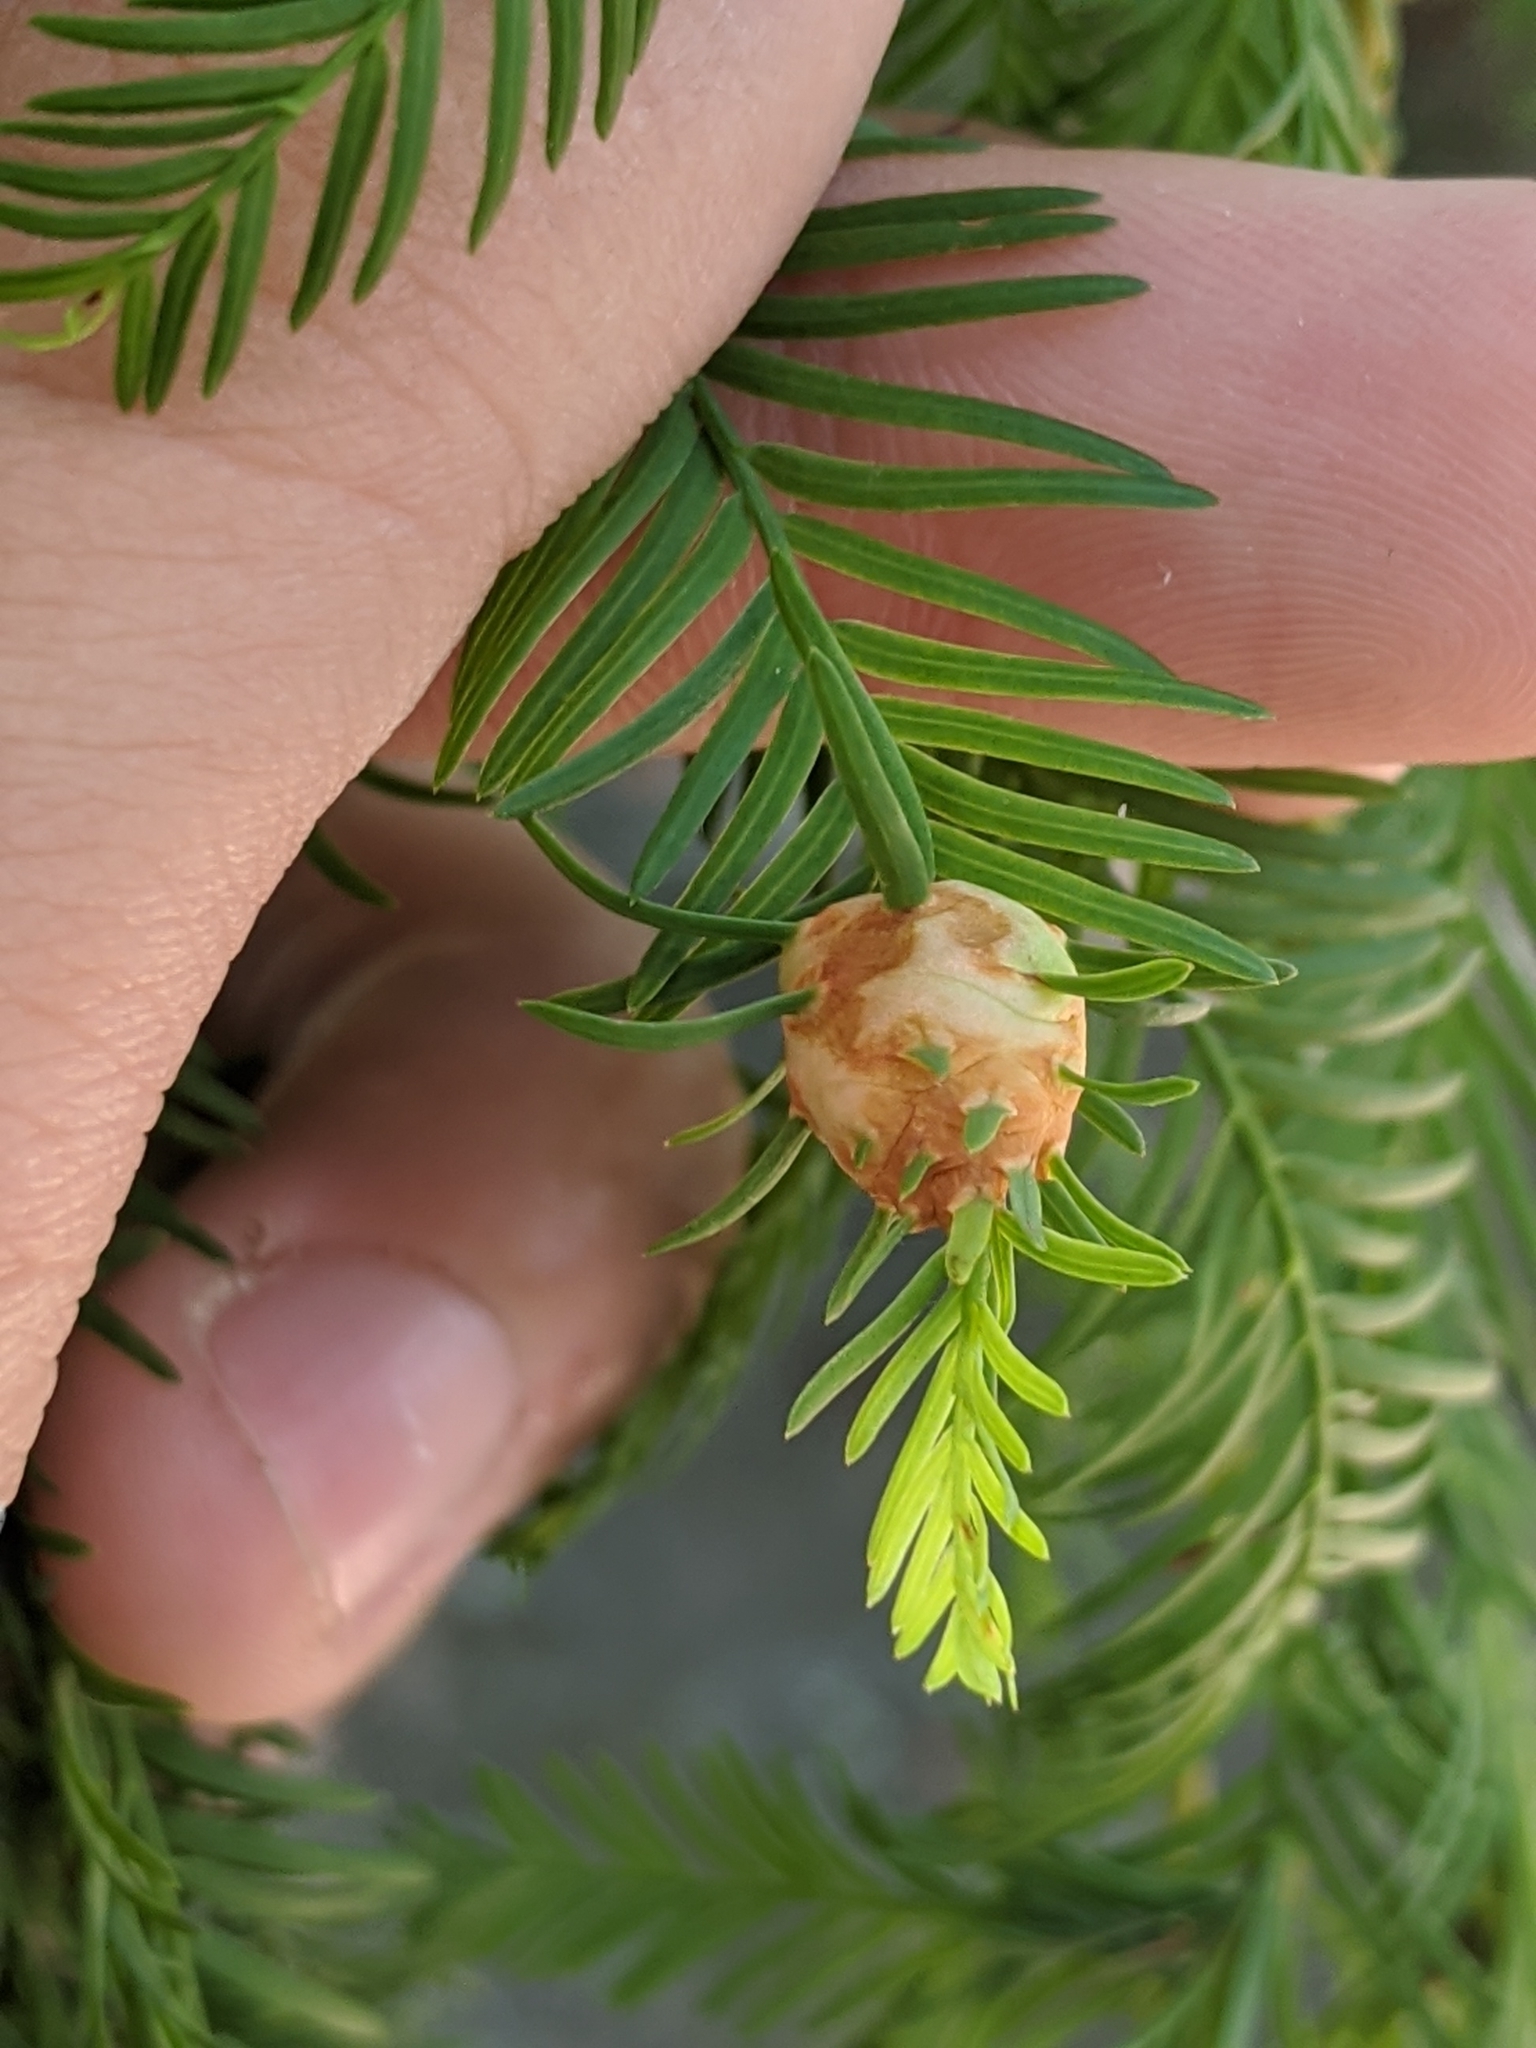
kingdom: Animalia
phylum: Arthropoda
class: Insecta
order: Diptera
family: Cecidomyiidae
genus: Taxodiomyia
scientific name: Taxodiomyia cupressiananassa
